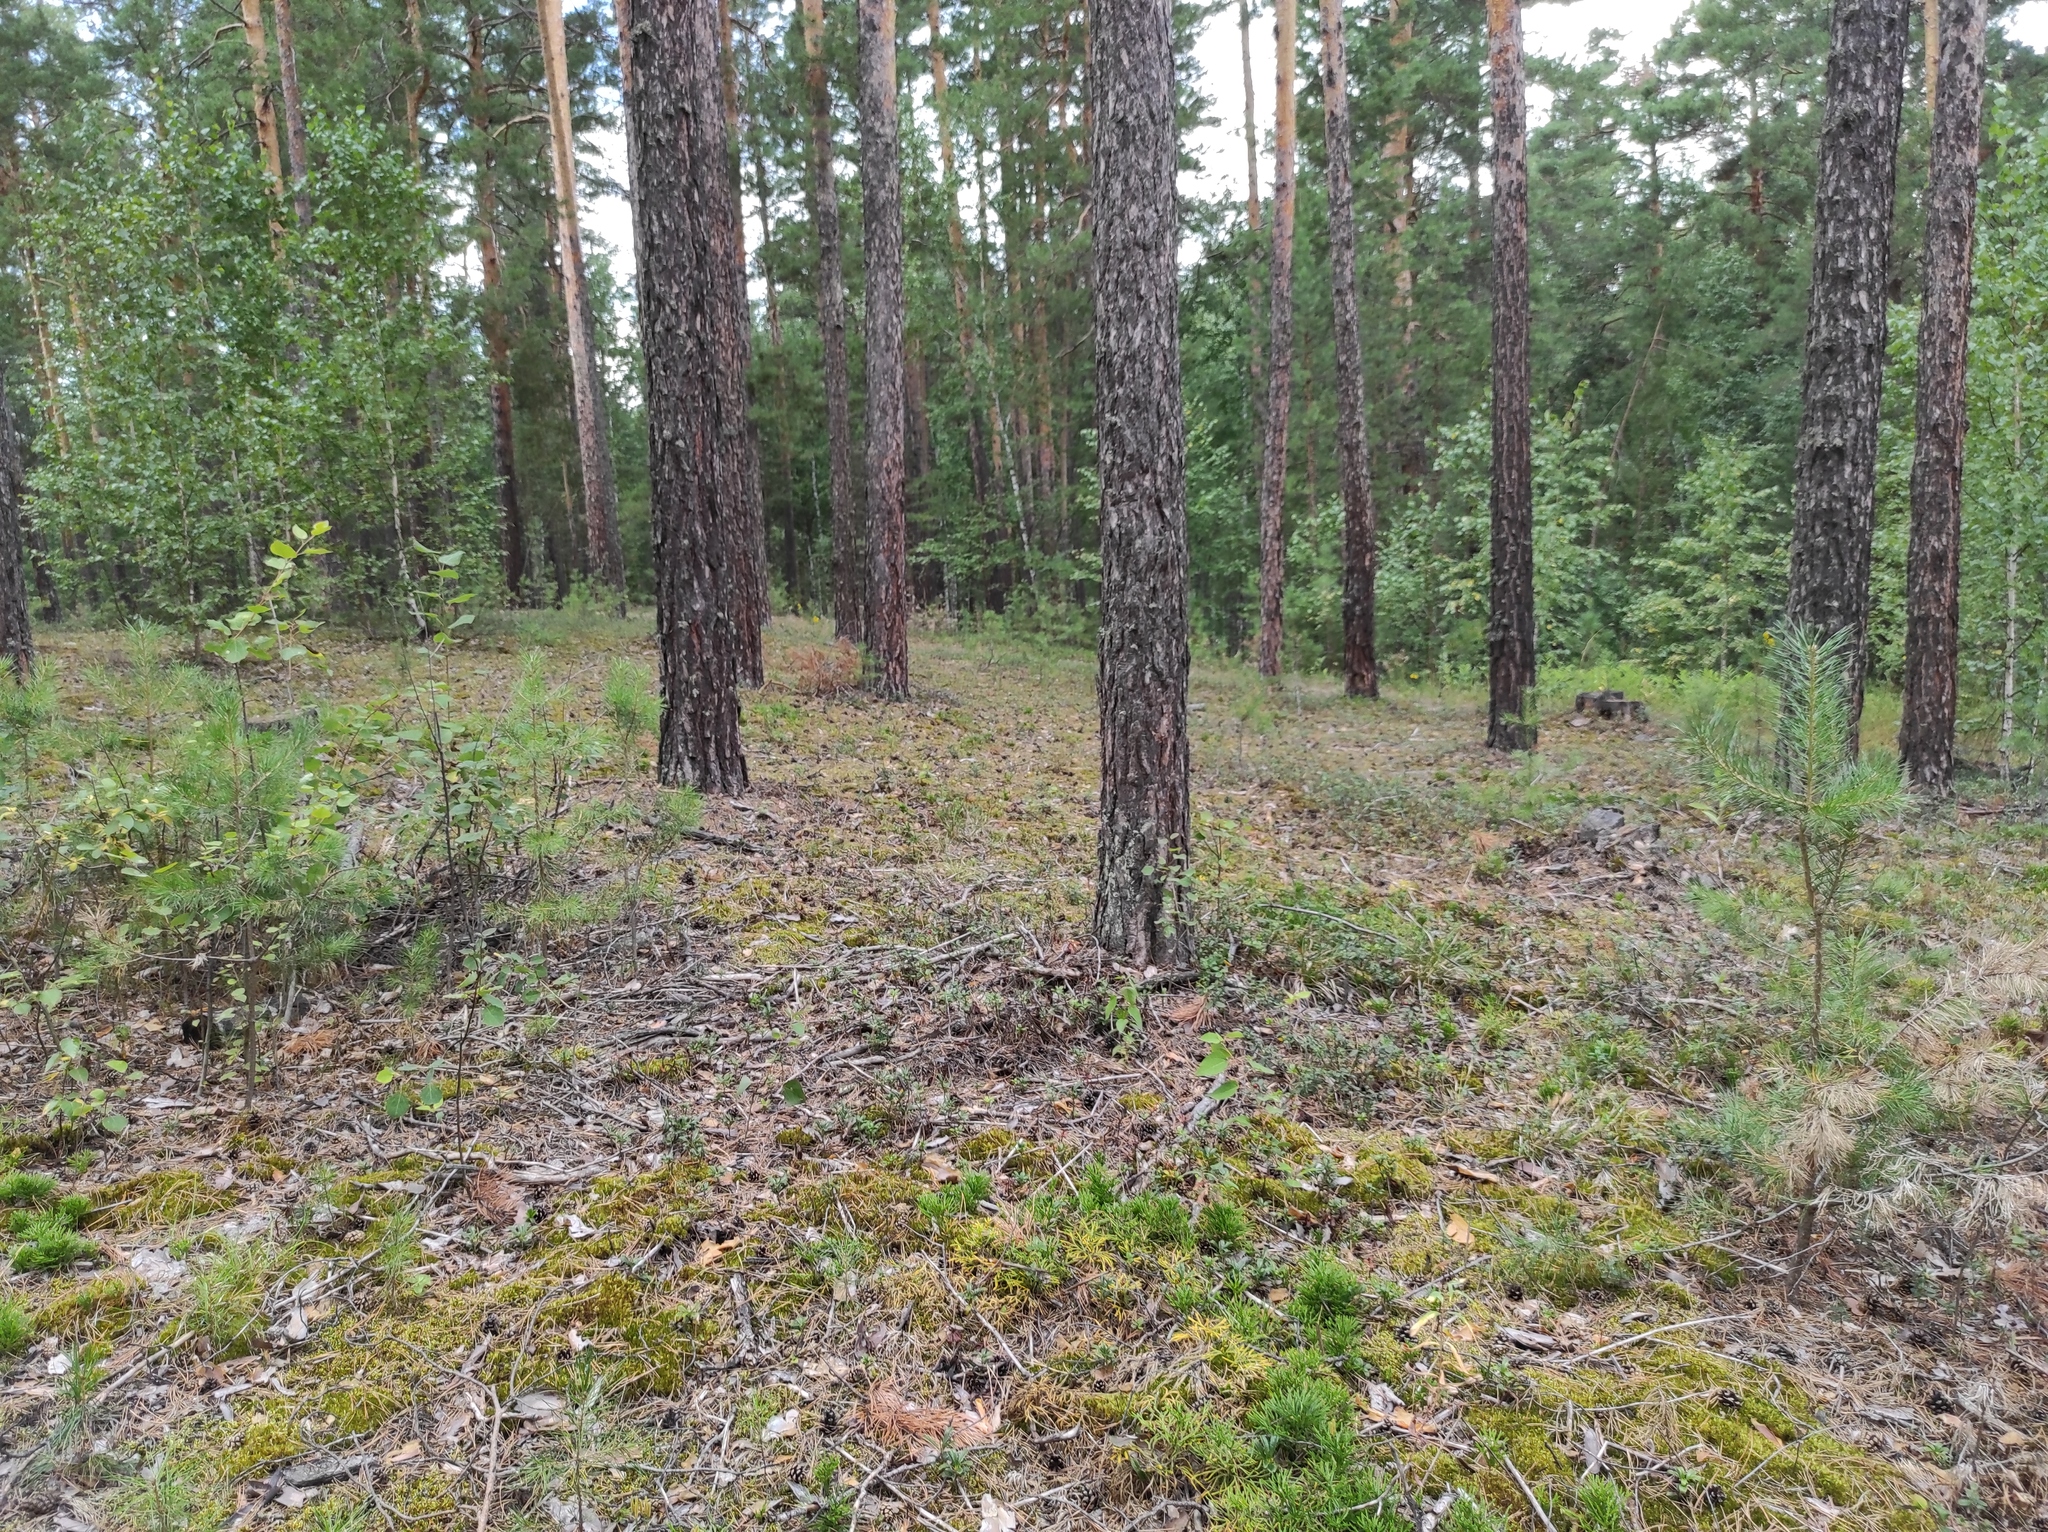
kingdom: Plantae
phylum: Tracheophyta
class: Pinopsida
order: Pinales
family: Pinaceae
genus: Pinus
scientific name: Pinus sylvestris
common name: Scots pine
